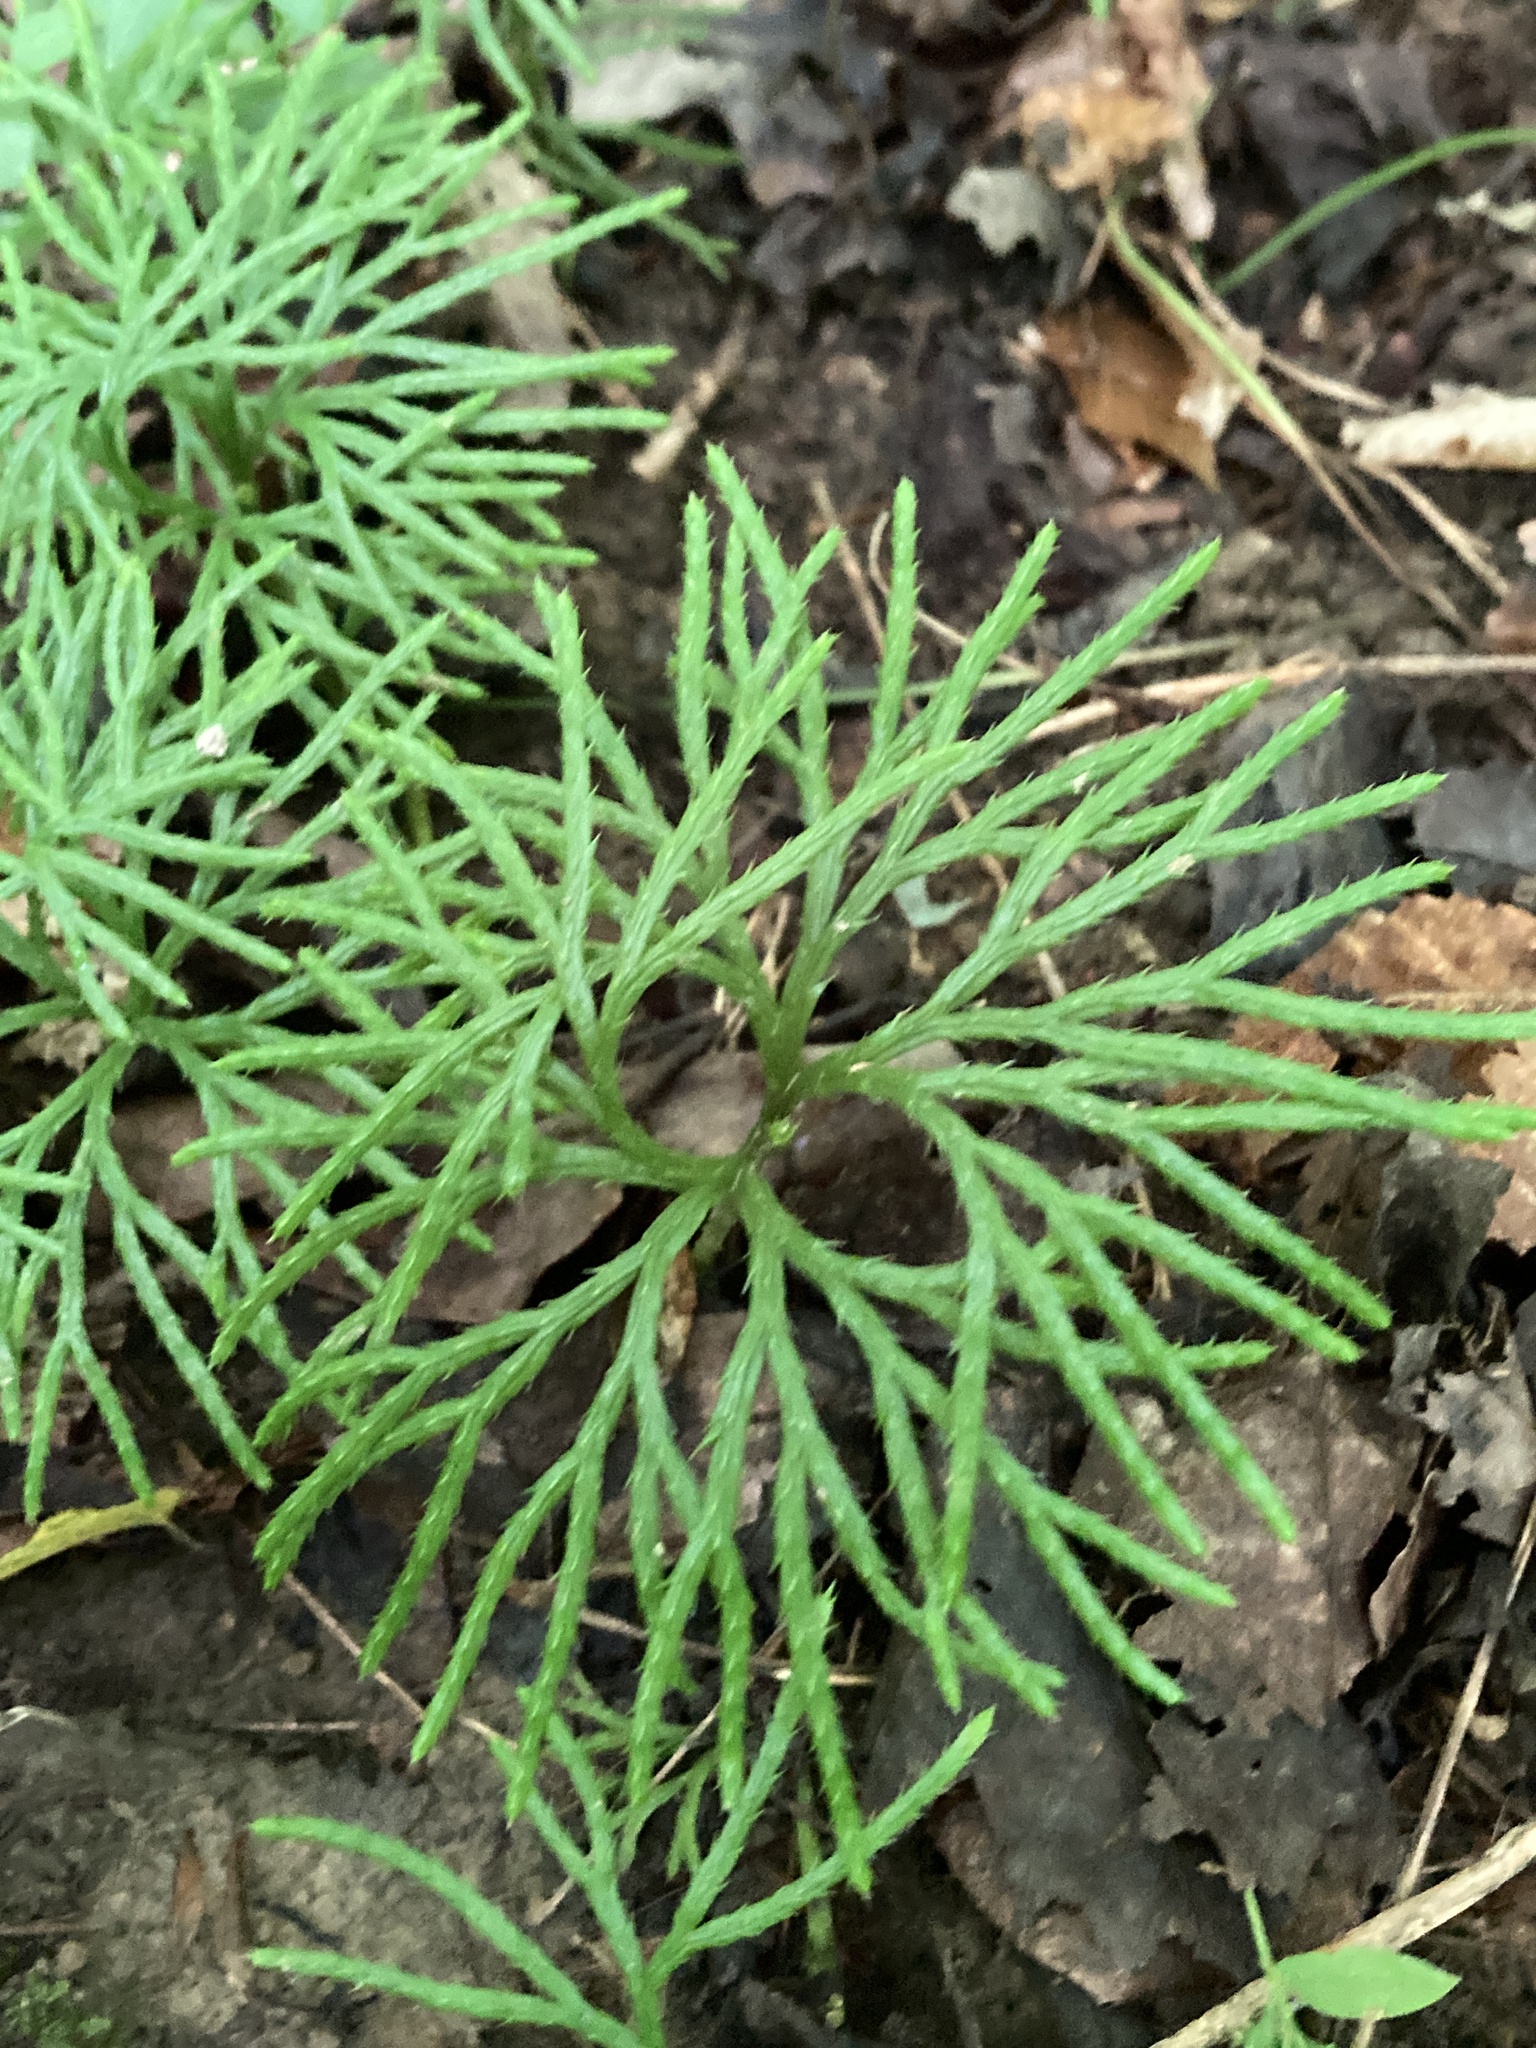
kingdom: Plantae
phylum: Tracheophyta
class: Lycopodiopsida
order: Lycopodiales
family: Lycopodiaceae
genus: Diphasiastrum
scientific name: Diphasiastrum digitatum
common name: Southern running-pine
